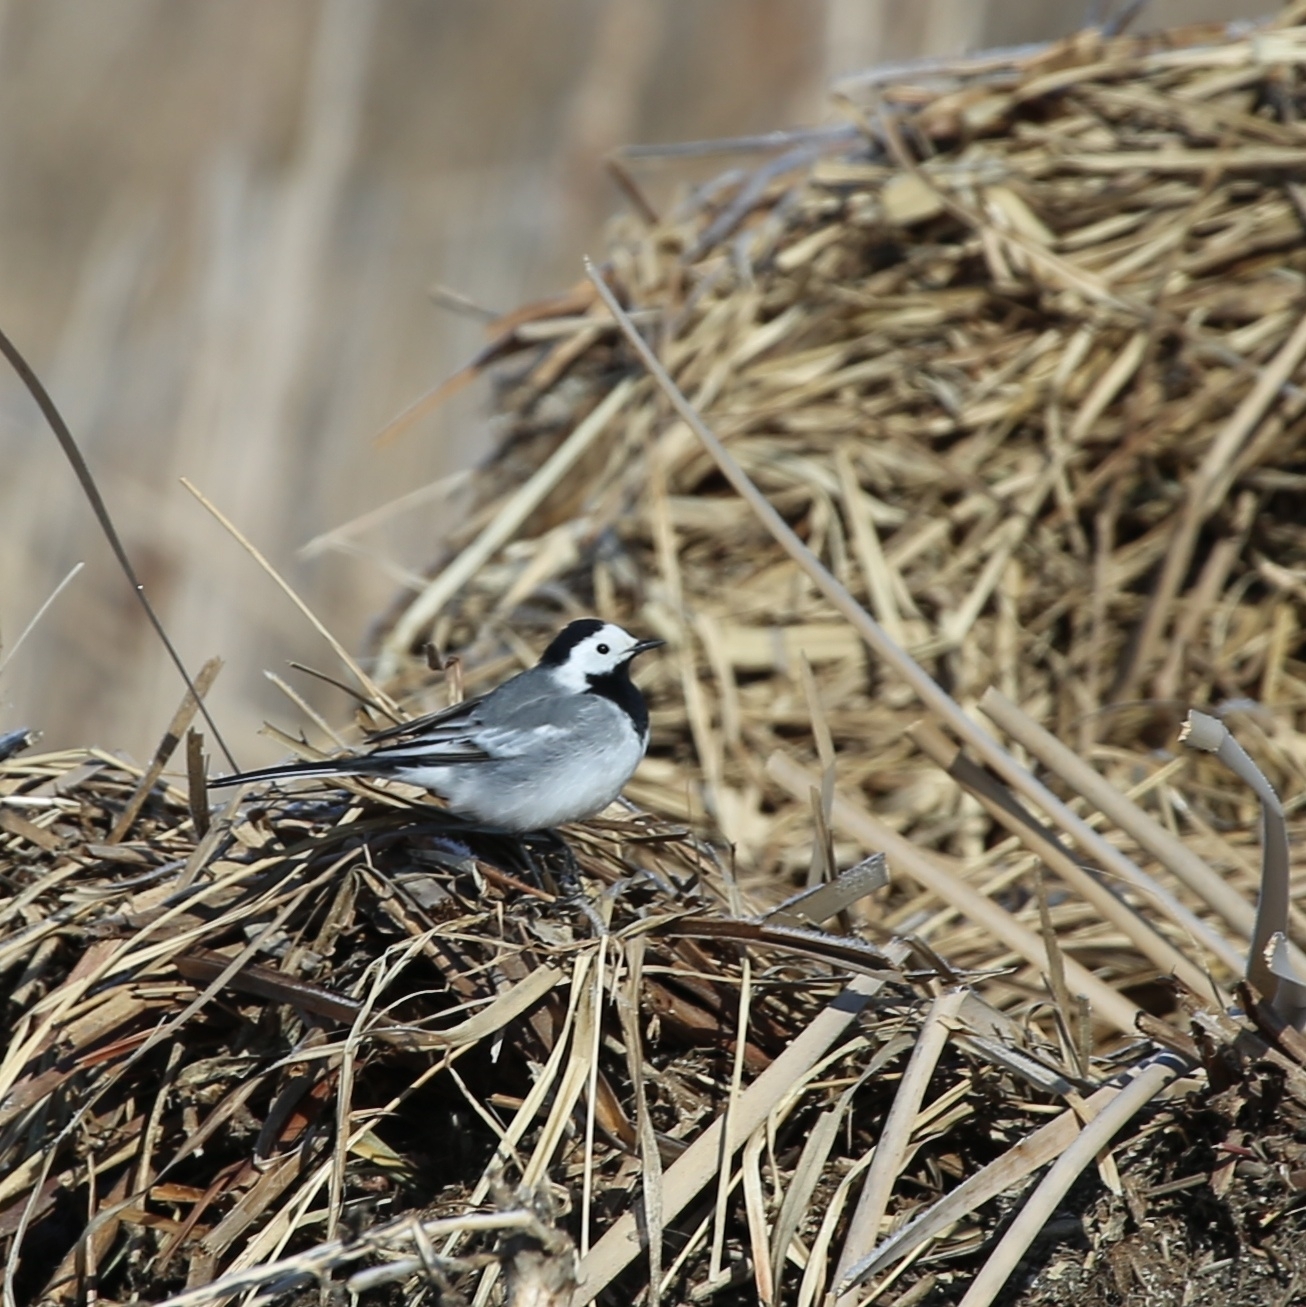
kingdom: Animalia
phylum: Chordata
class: Aves
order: Passeriformes
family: Motacillidae
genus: Motacilla
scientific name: Motacilla alba
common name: White wagtail
